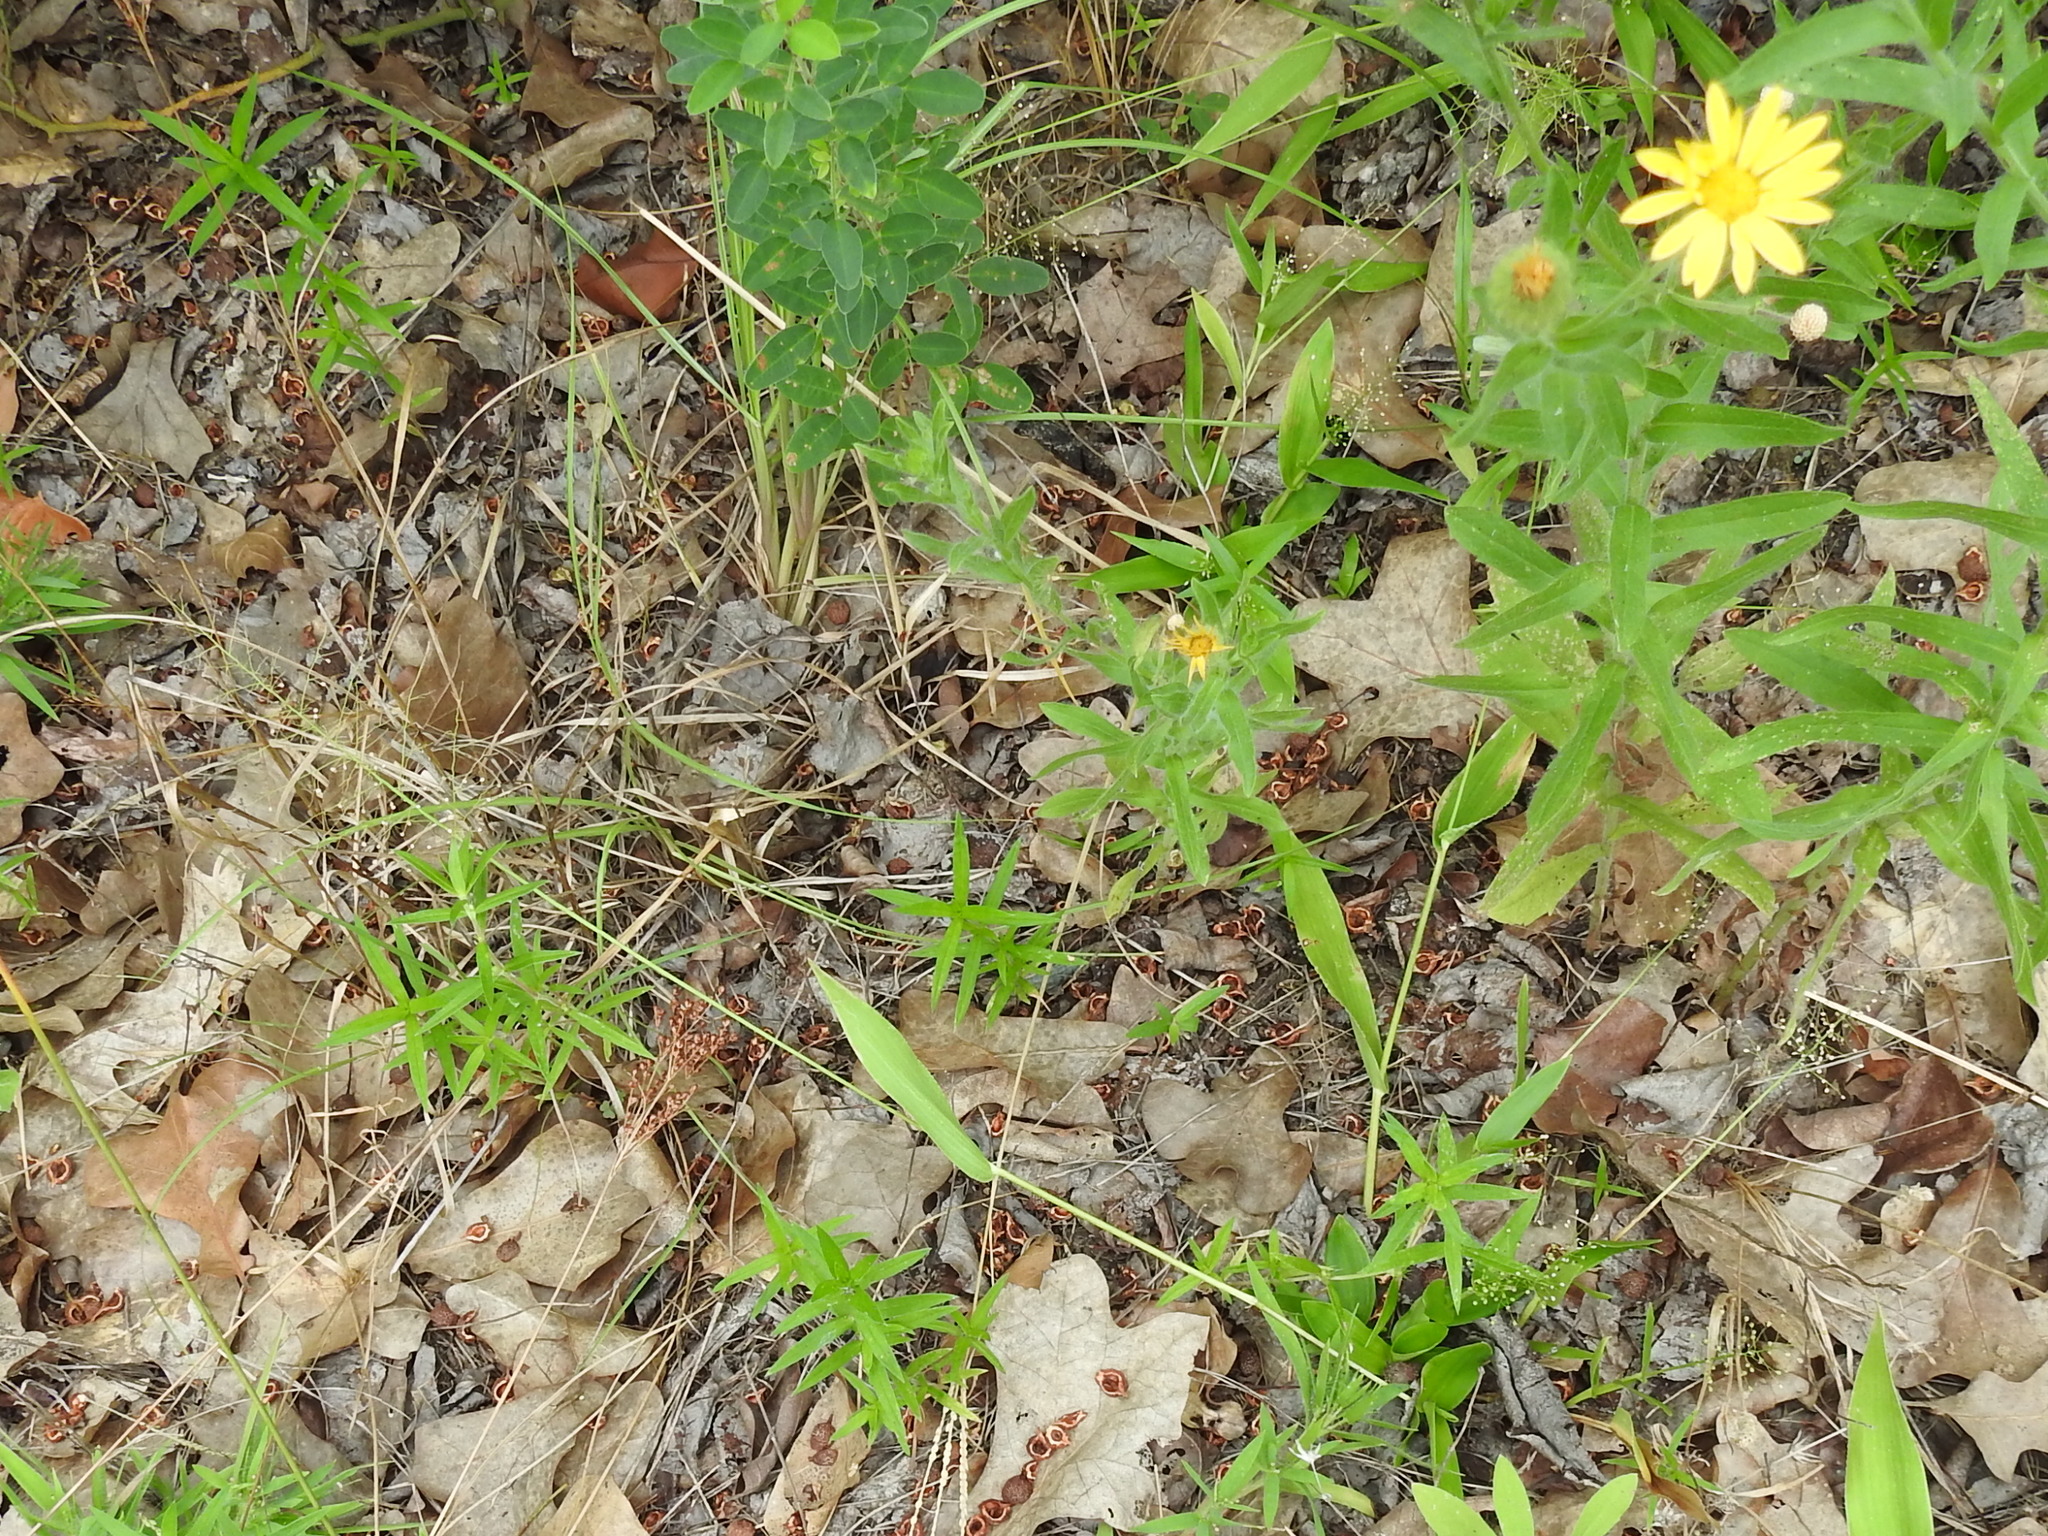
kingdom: Plantae
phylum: Tracheophyta
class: Liliopsida
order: Poales
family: Poaceae
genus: Dichanthelium
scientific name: Dichanthelium sphaerocarpon
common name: Round-fruited panicgrass
